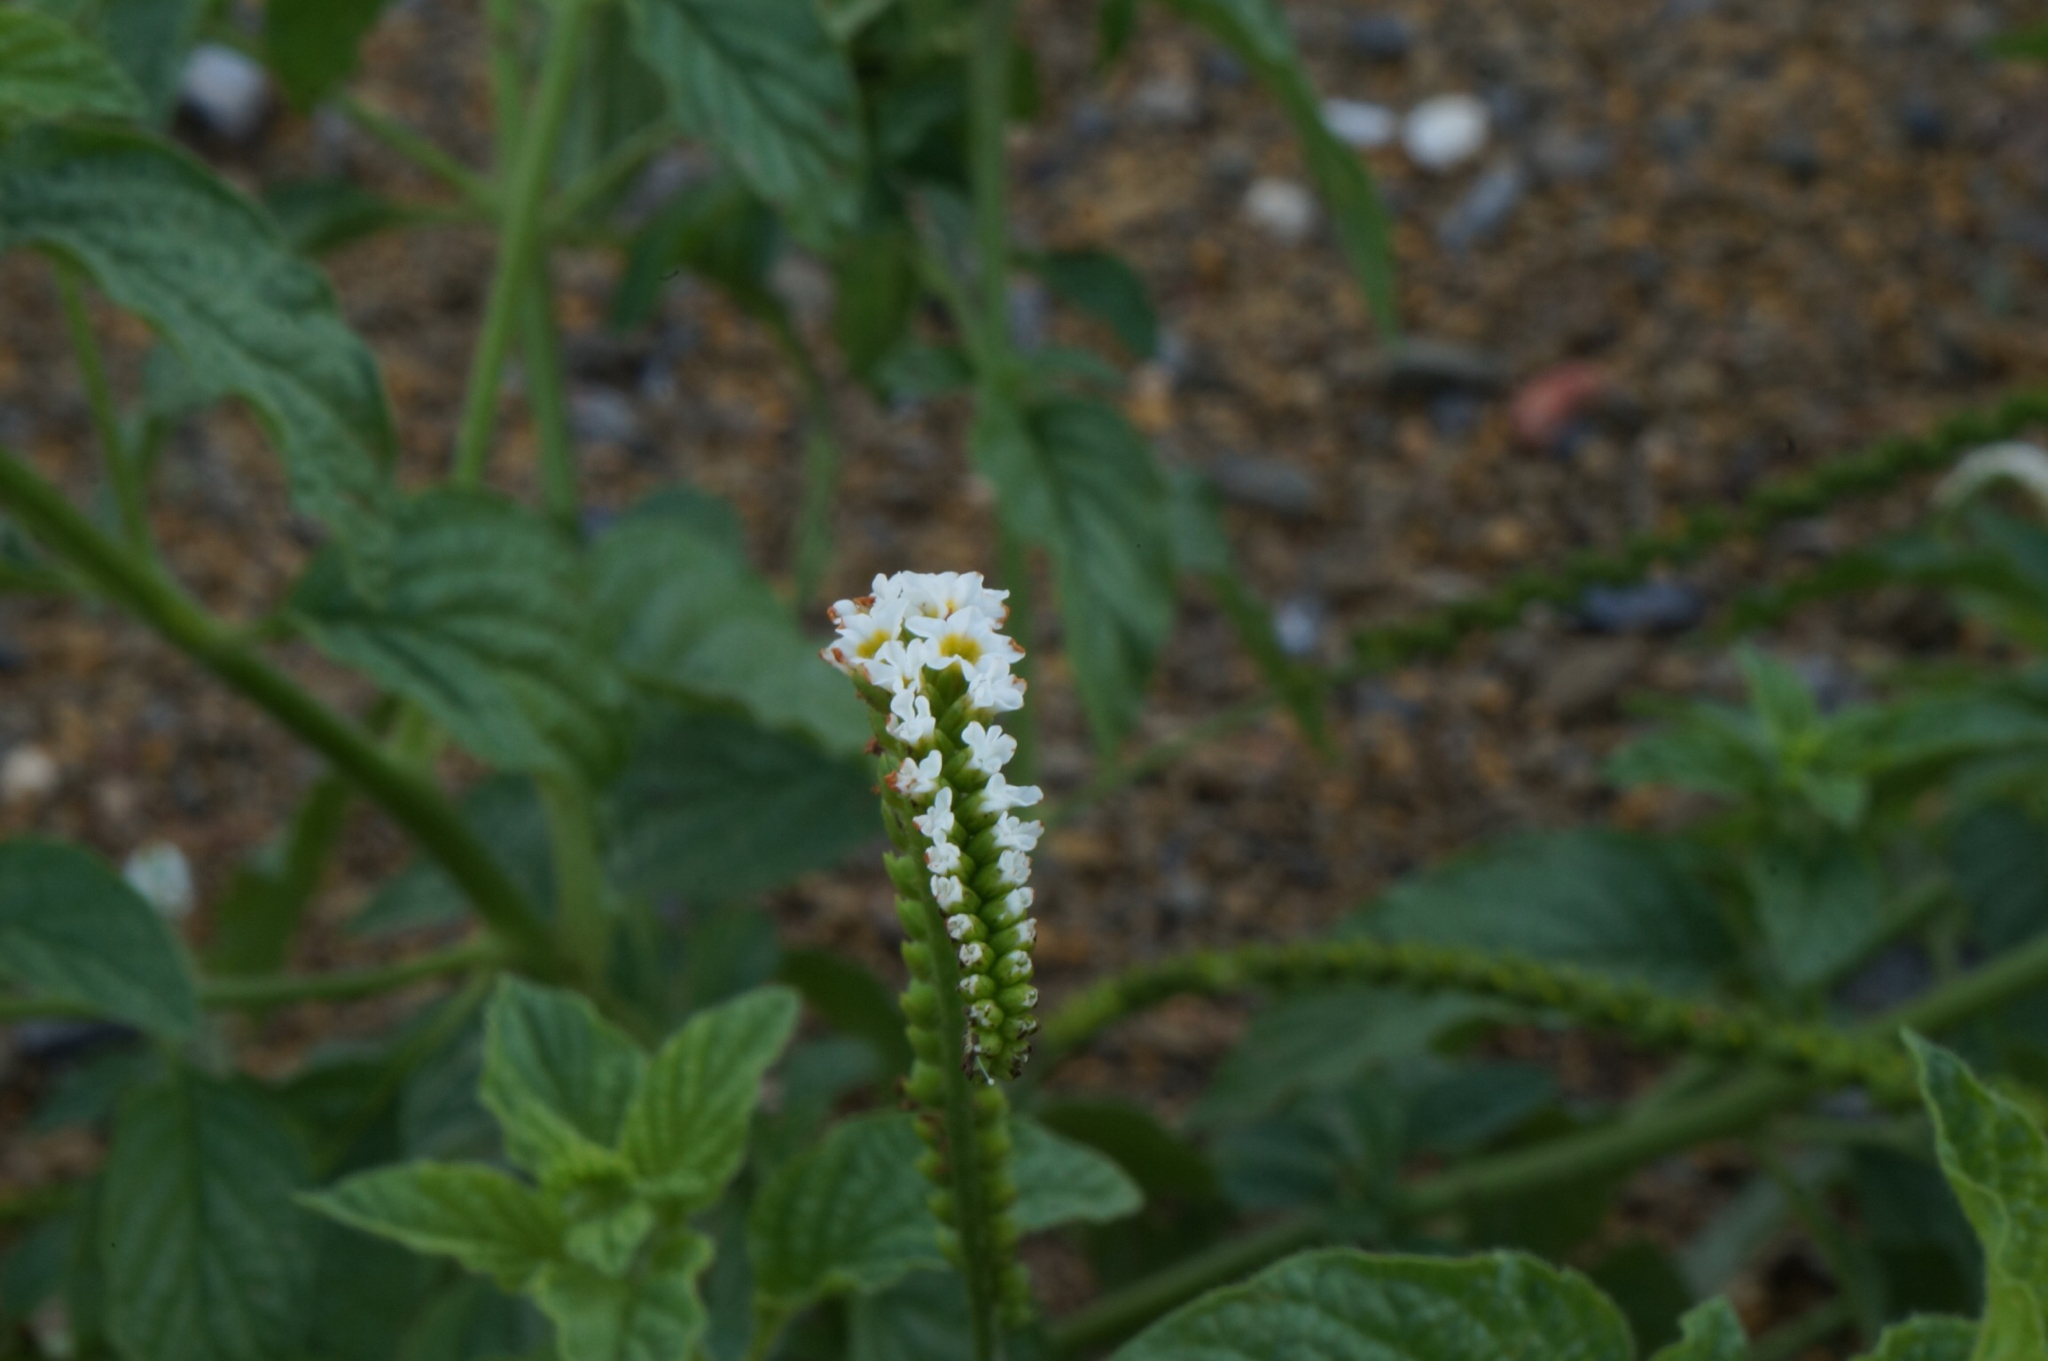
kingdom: Plantae
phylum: Tracheophyta
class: Magnoliopsida
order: Boraginales
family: Heliotropiaceae
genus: Heliotropium
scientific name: Heliotropium angiospermum
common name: Eye bright
